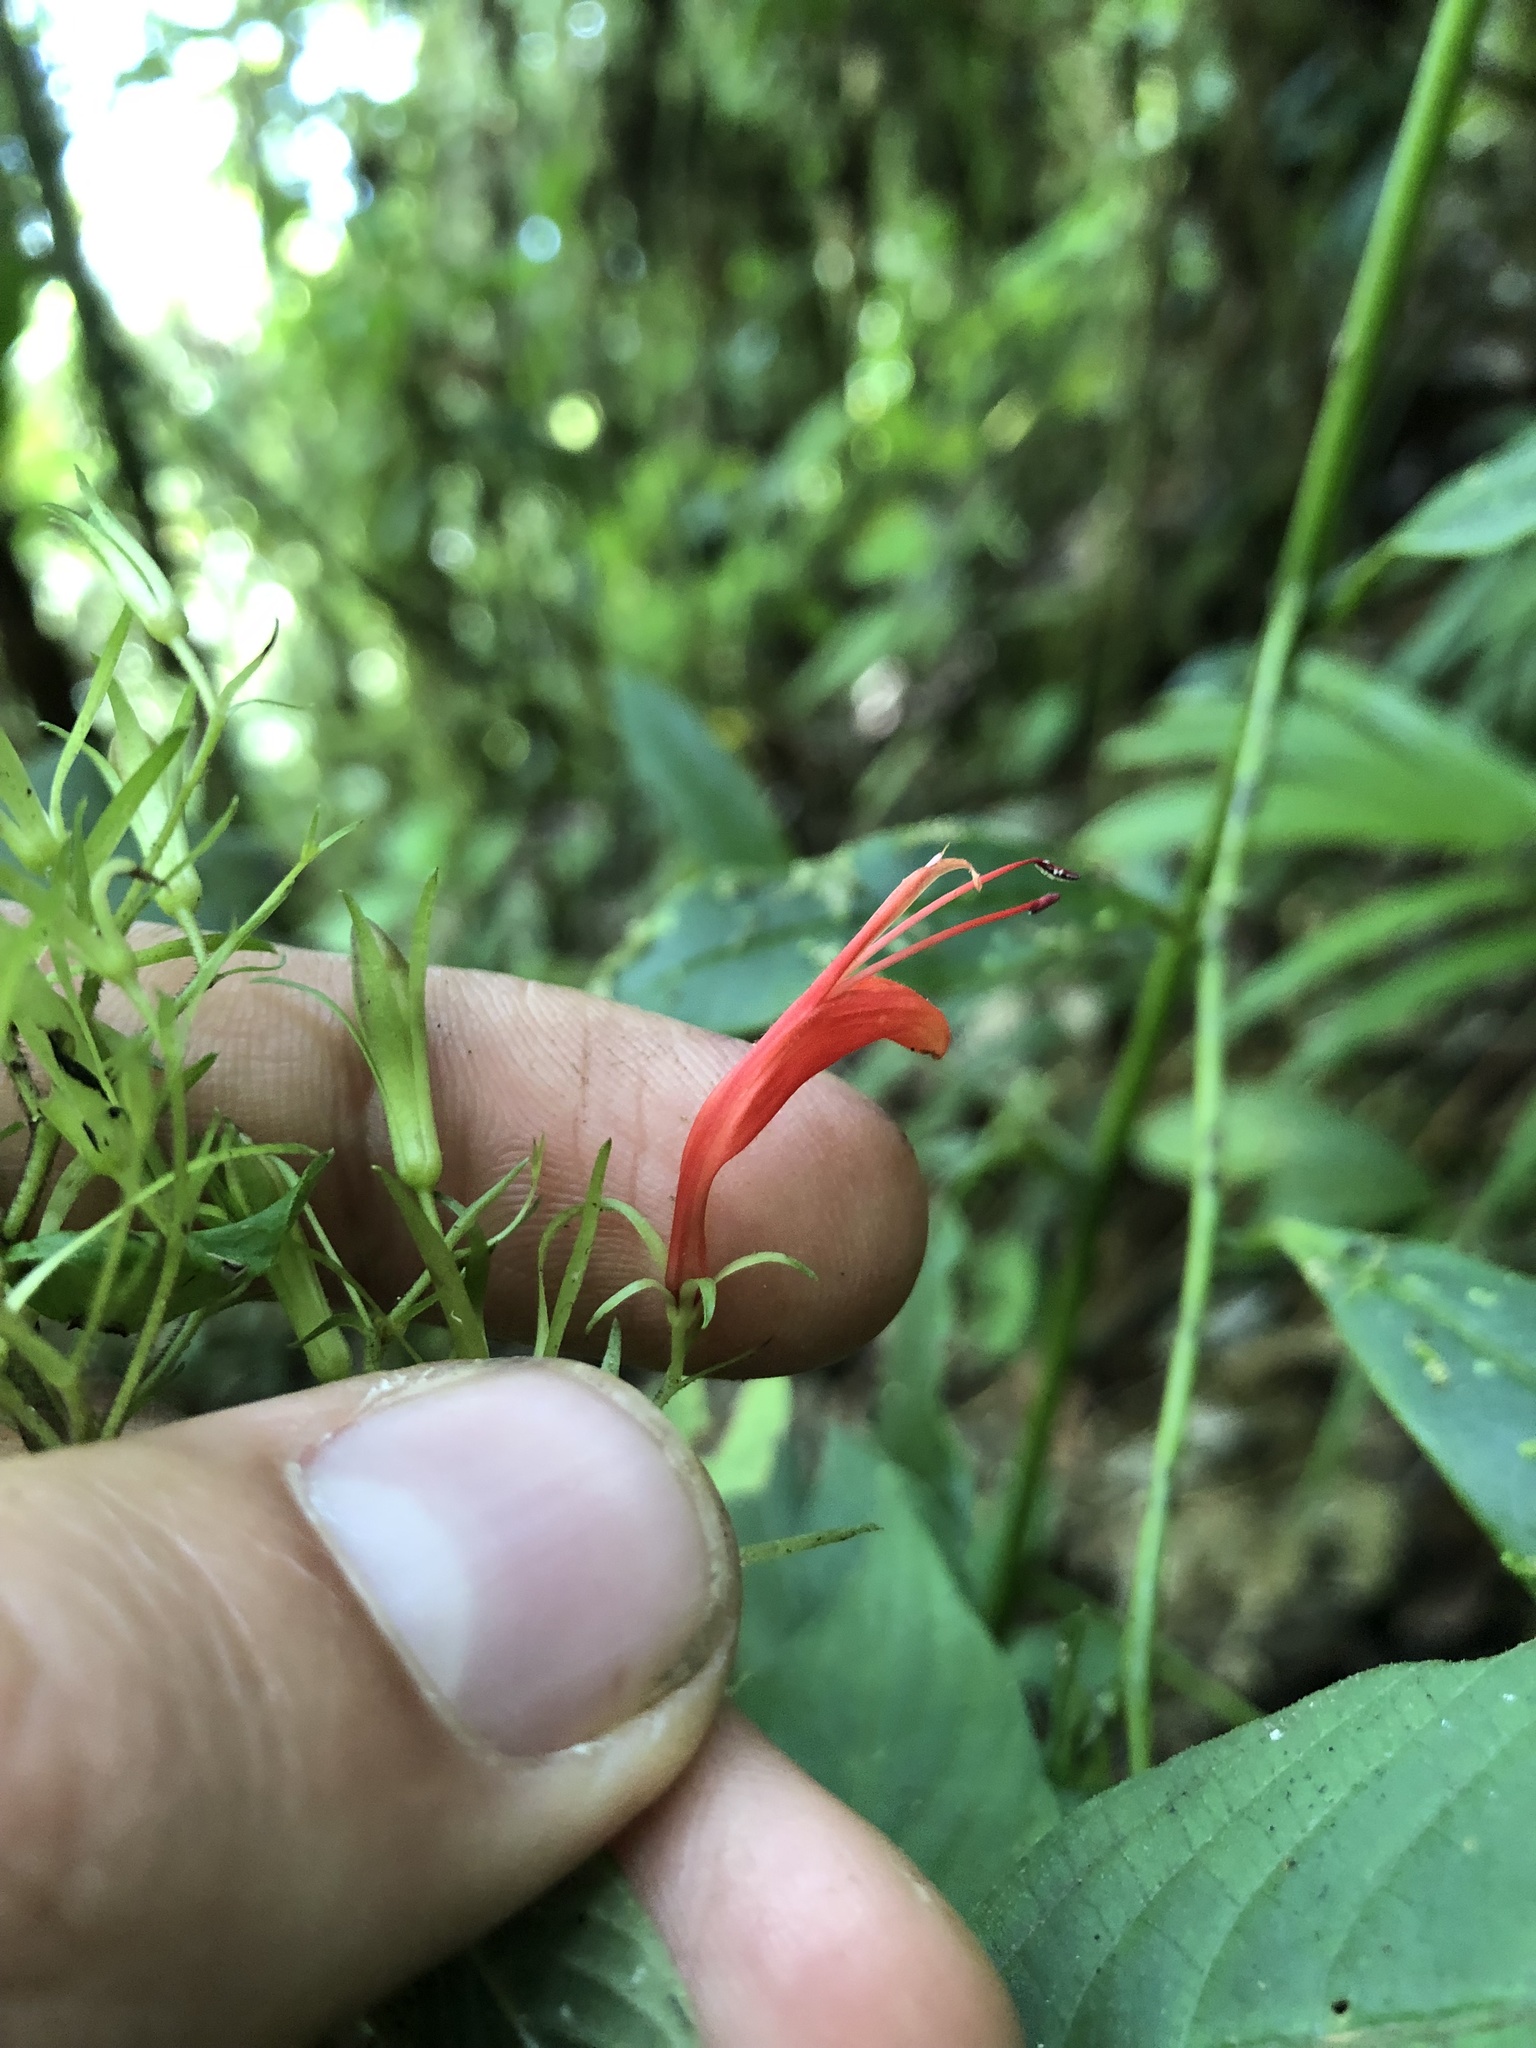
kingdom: Plantae
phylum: Tracheophyta
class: Magnoliopsida
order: Lamiales
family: Acanthaceae
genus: Stenostephanus
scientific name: Stenostephanus hispidulus
